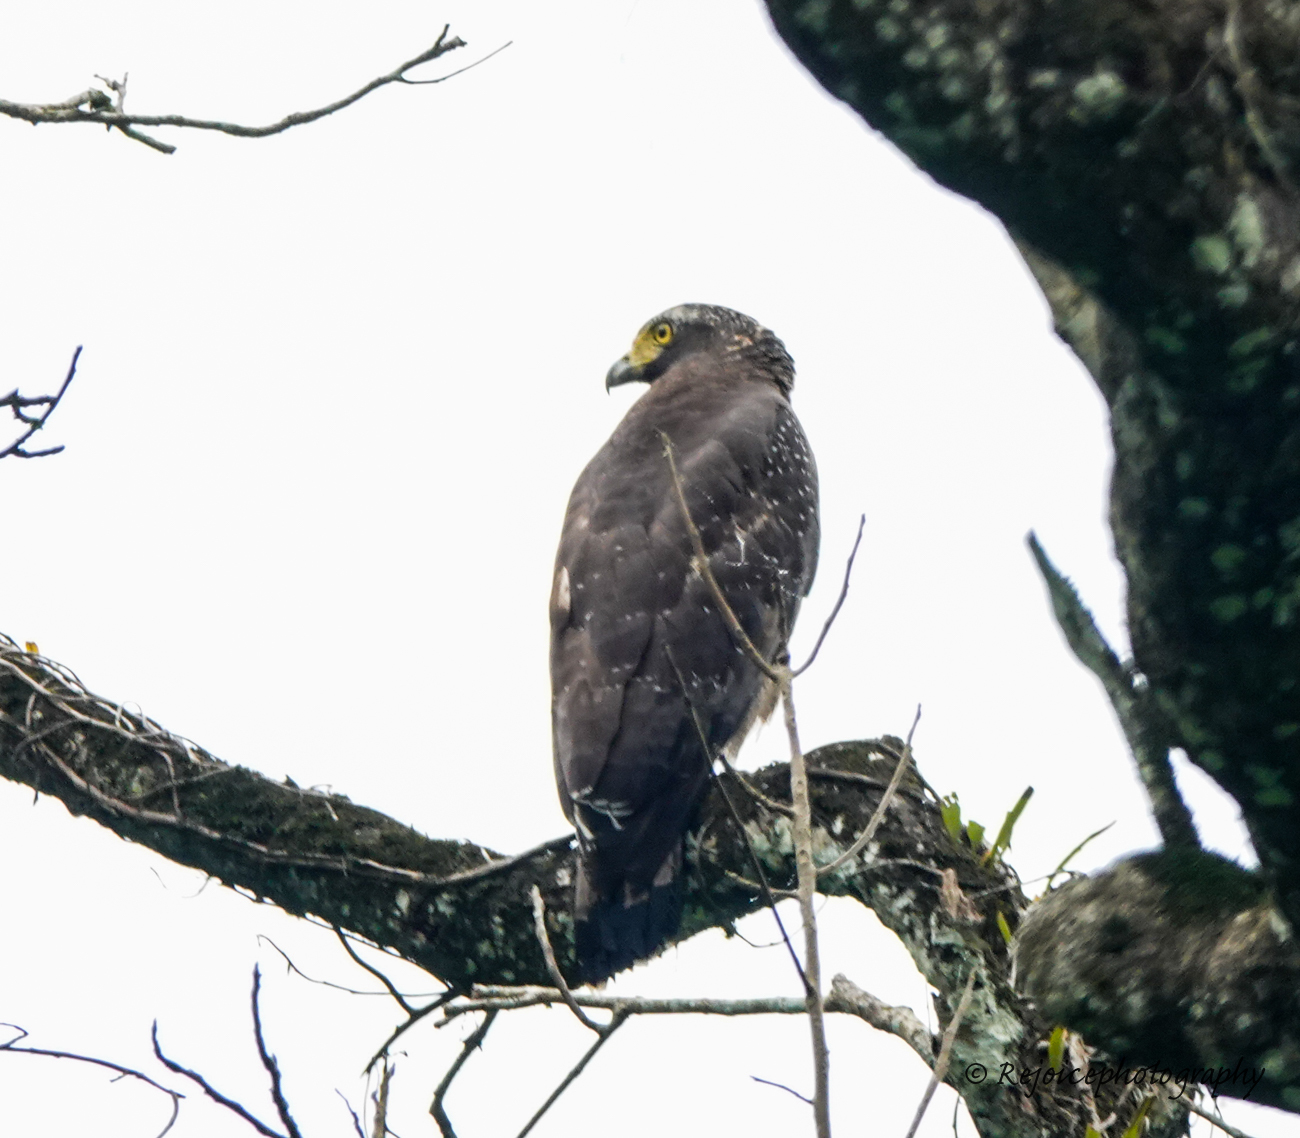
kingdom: Animalia
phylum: Chordata
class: Aves
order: Accipitriformes
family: Accipitridae
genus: Spilornis
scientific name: Spilornis cheela
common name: Crested serpent eagle
